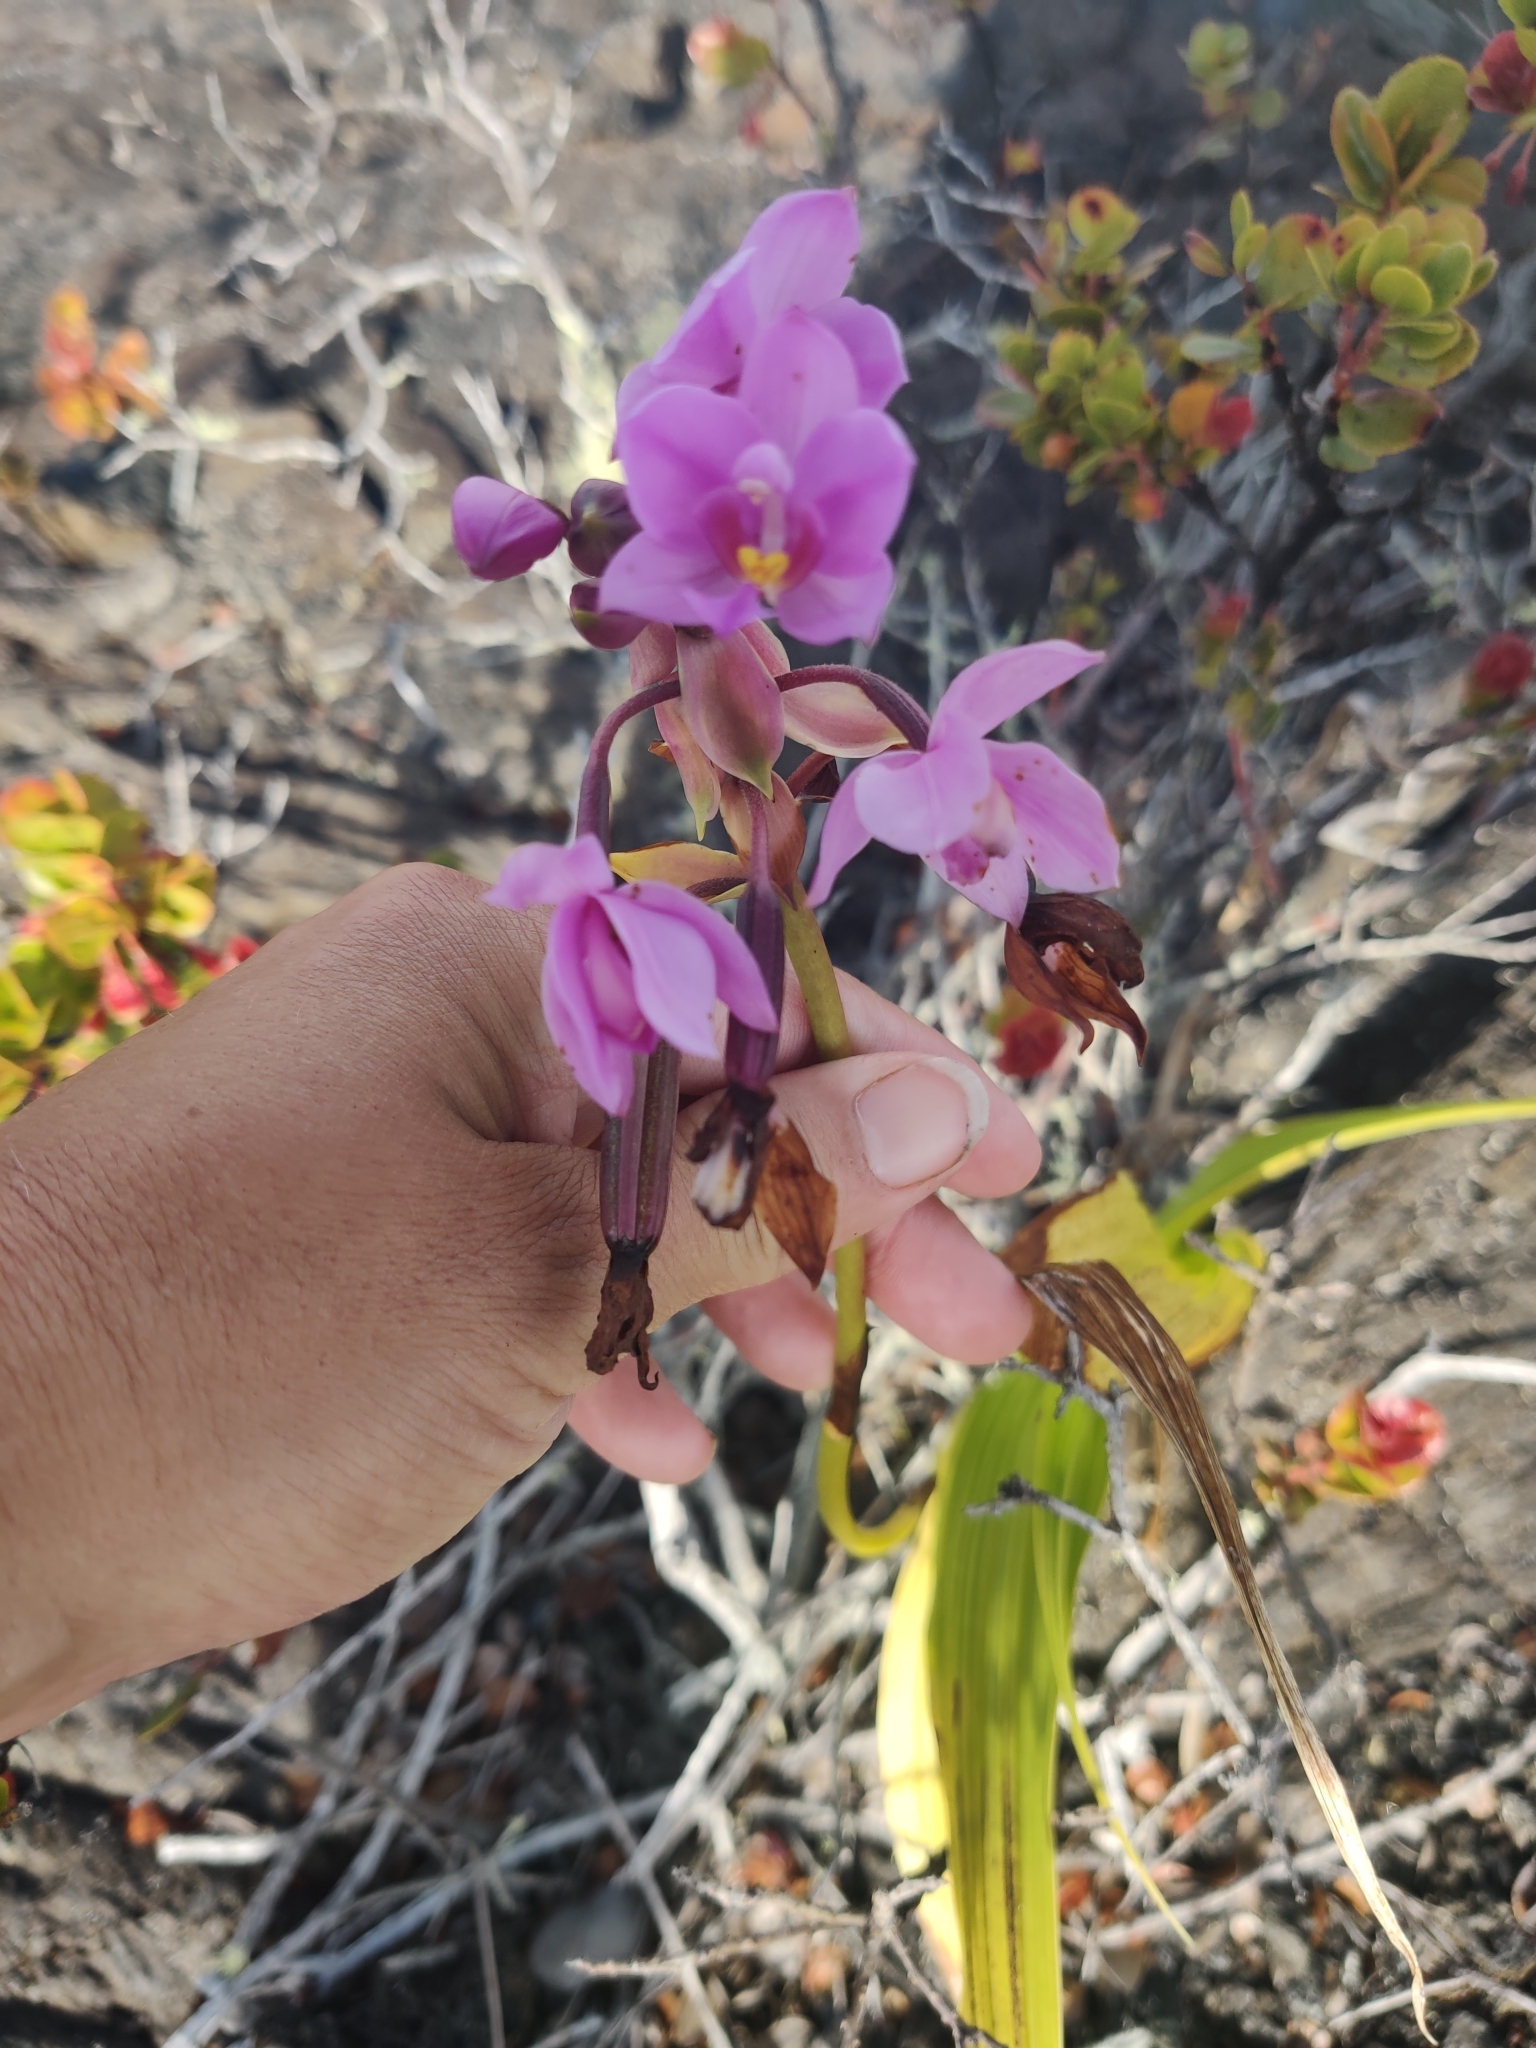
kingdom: Plantae
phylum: Tracheophyta
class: Liliopsida
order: Asparagales
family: Orchidaceae
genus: Spathoglottis
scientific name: Spathoglottis plicata
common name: Philippine ground orchid
